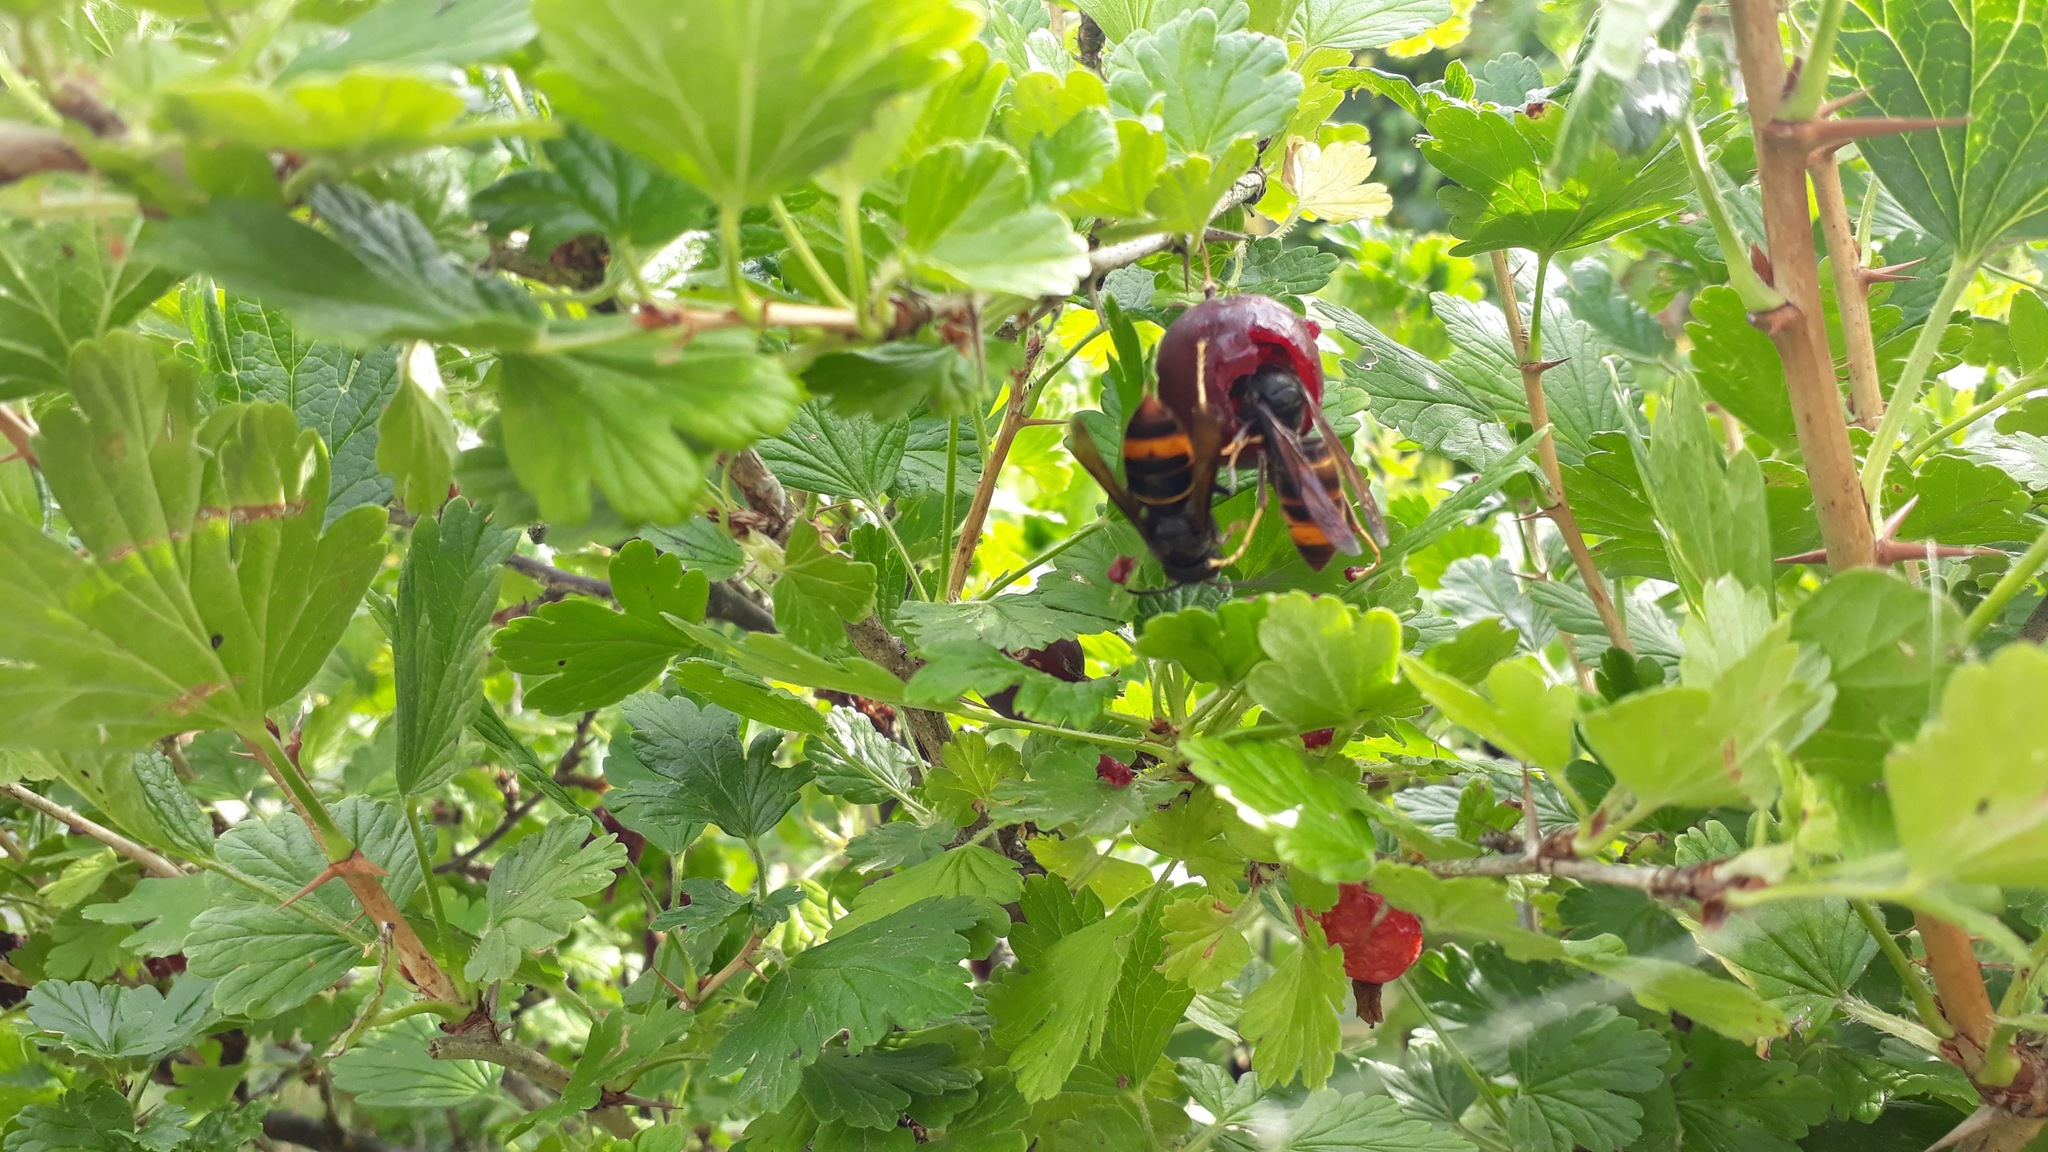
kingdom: Animalia
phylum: Arthropoda
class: Insecta
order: Hymenoptera
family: Vespidae
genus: Vespa
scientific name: Vespa velutina
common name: Asian hornet
